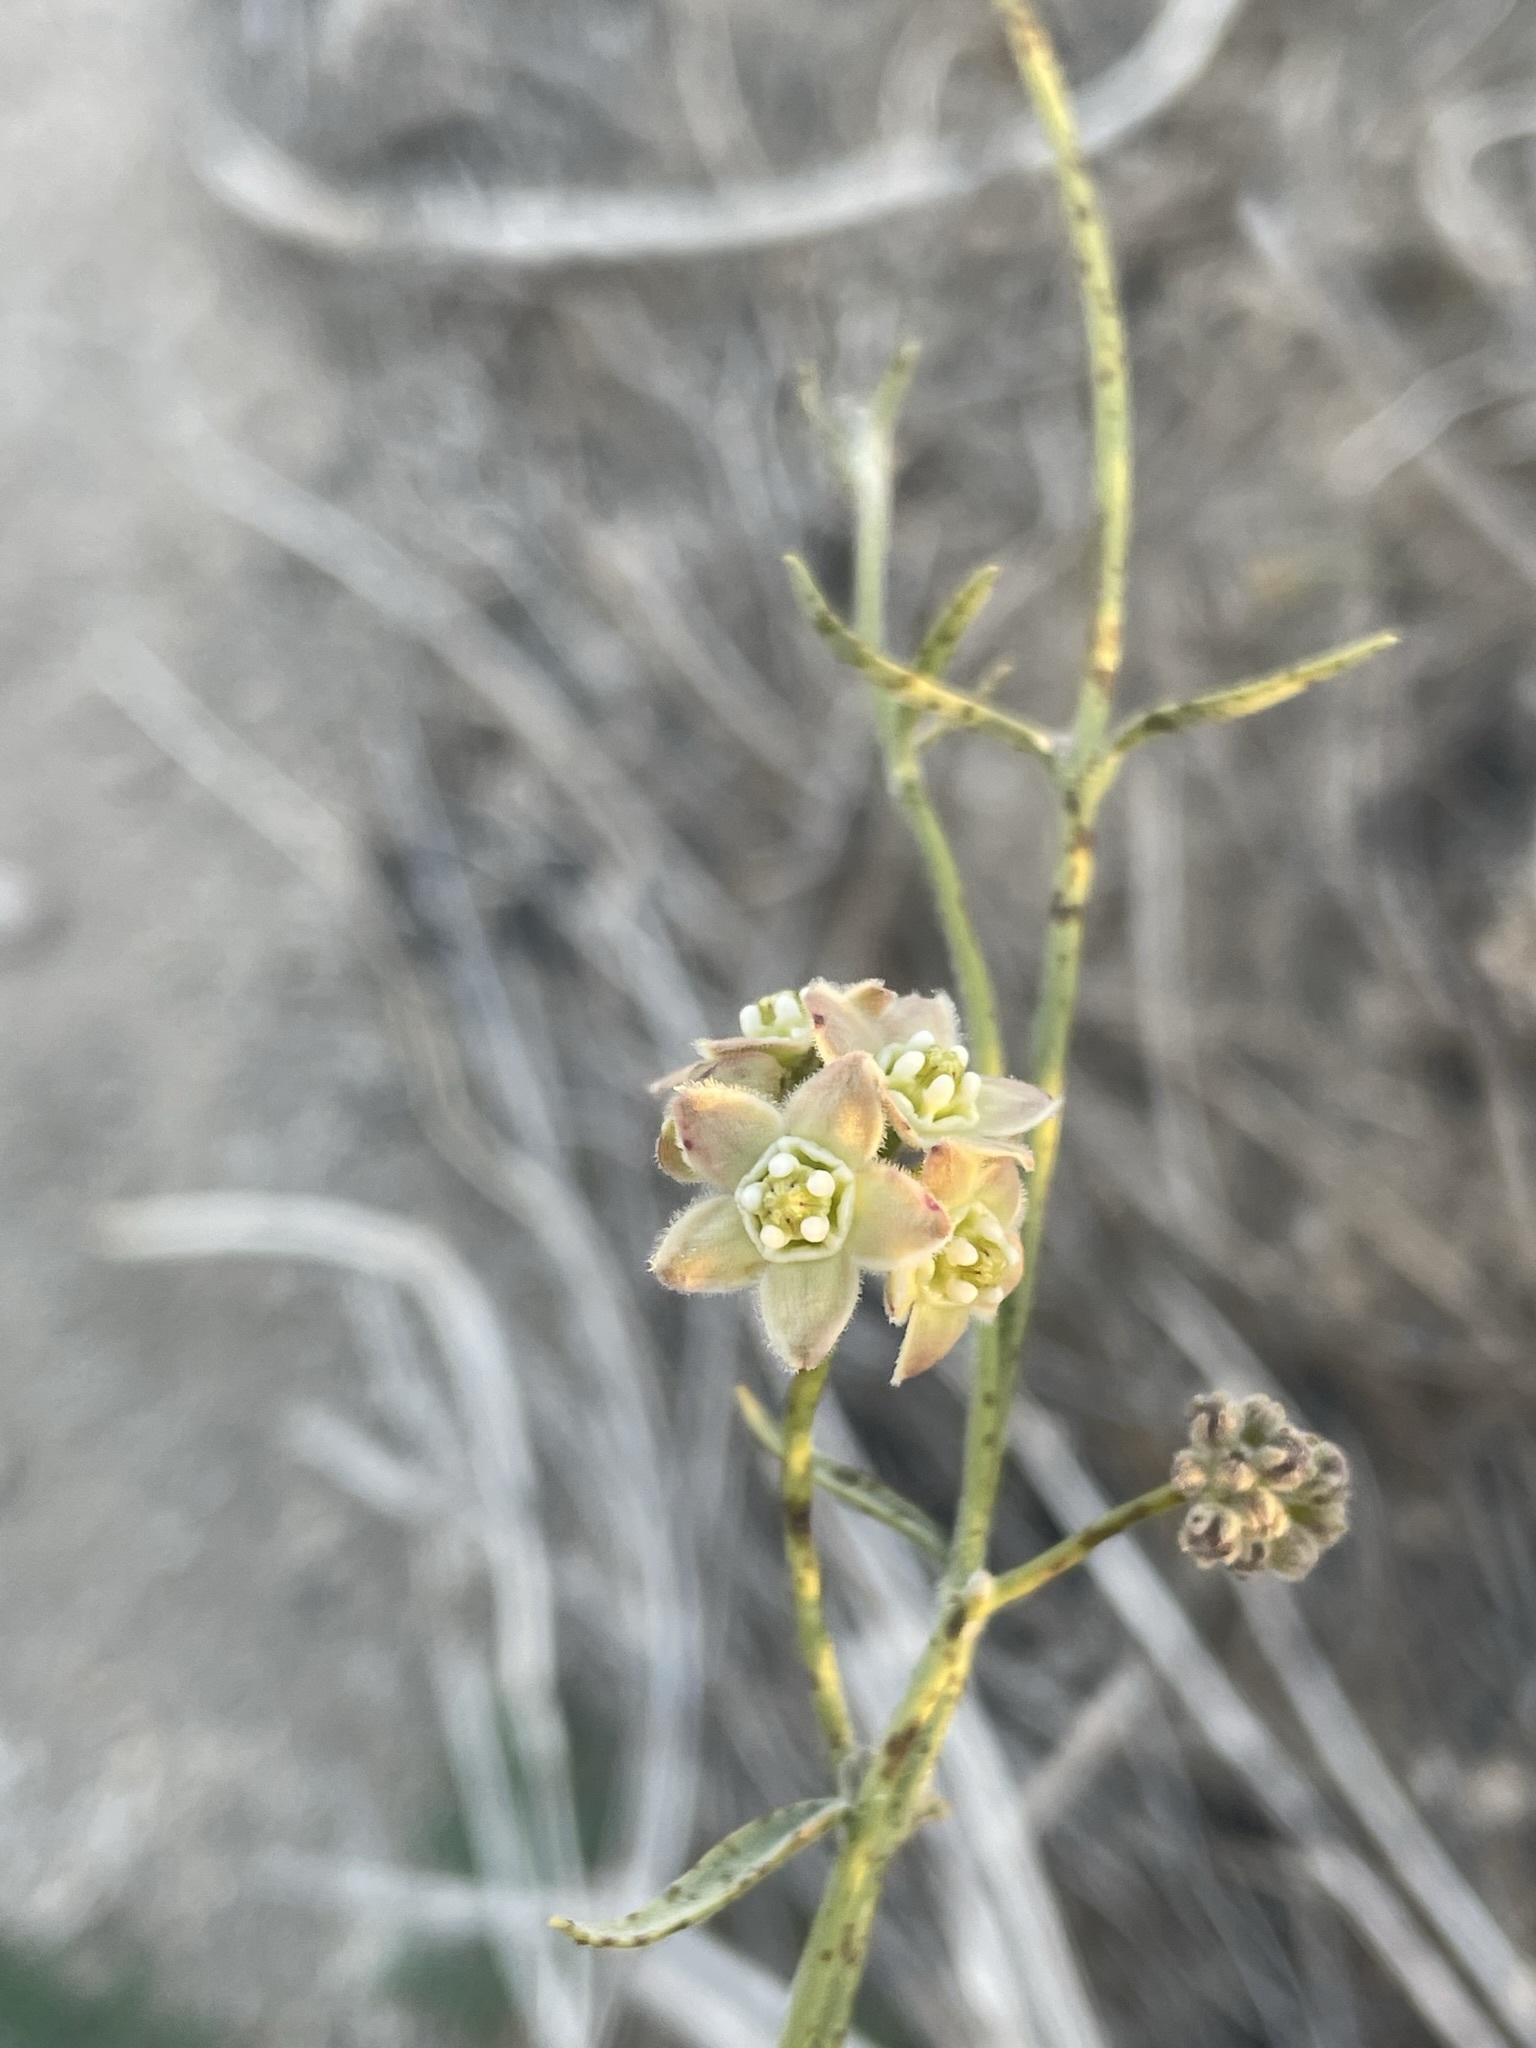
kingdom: Plantae
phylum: Tracheophyta
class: Magnoliopsida
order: Gentianales
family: Apocynaceae
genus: Funastrum
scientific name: Funastrum hirtellum
